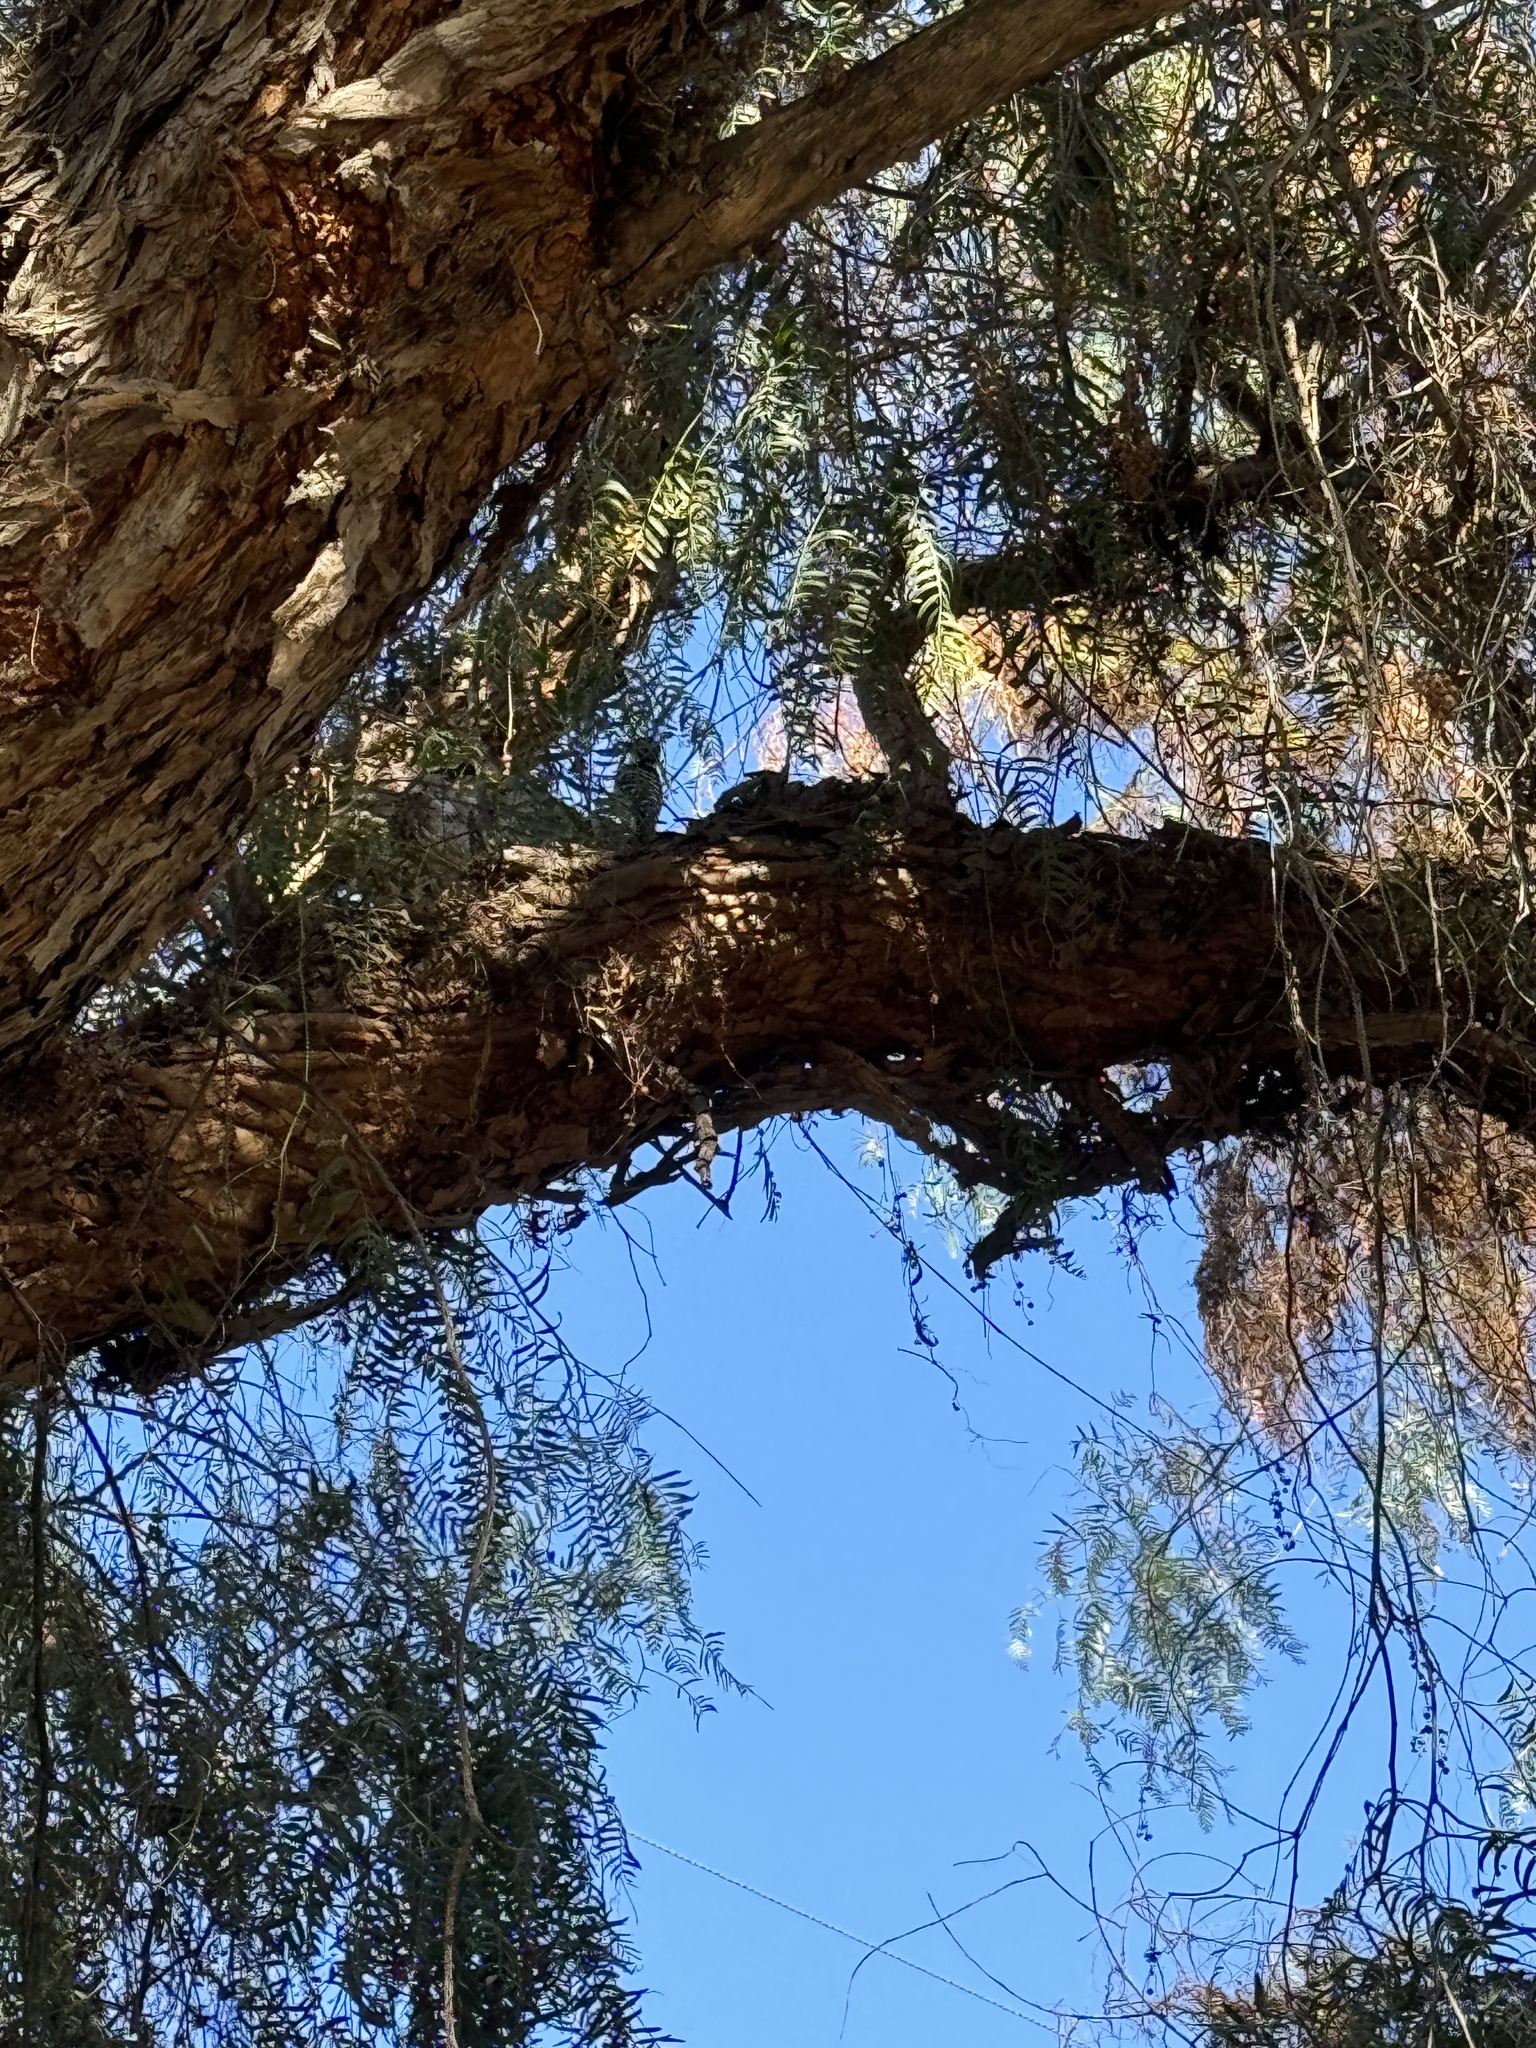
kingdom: Animalia
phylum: Chordata
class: Aves
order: Piciformes
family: Picidae
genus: Dryobates
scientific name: Dryobates nuttallii
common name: Nuttall's woodpecker
